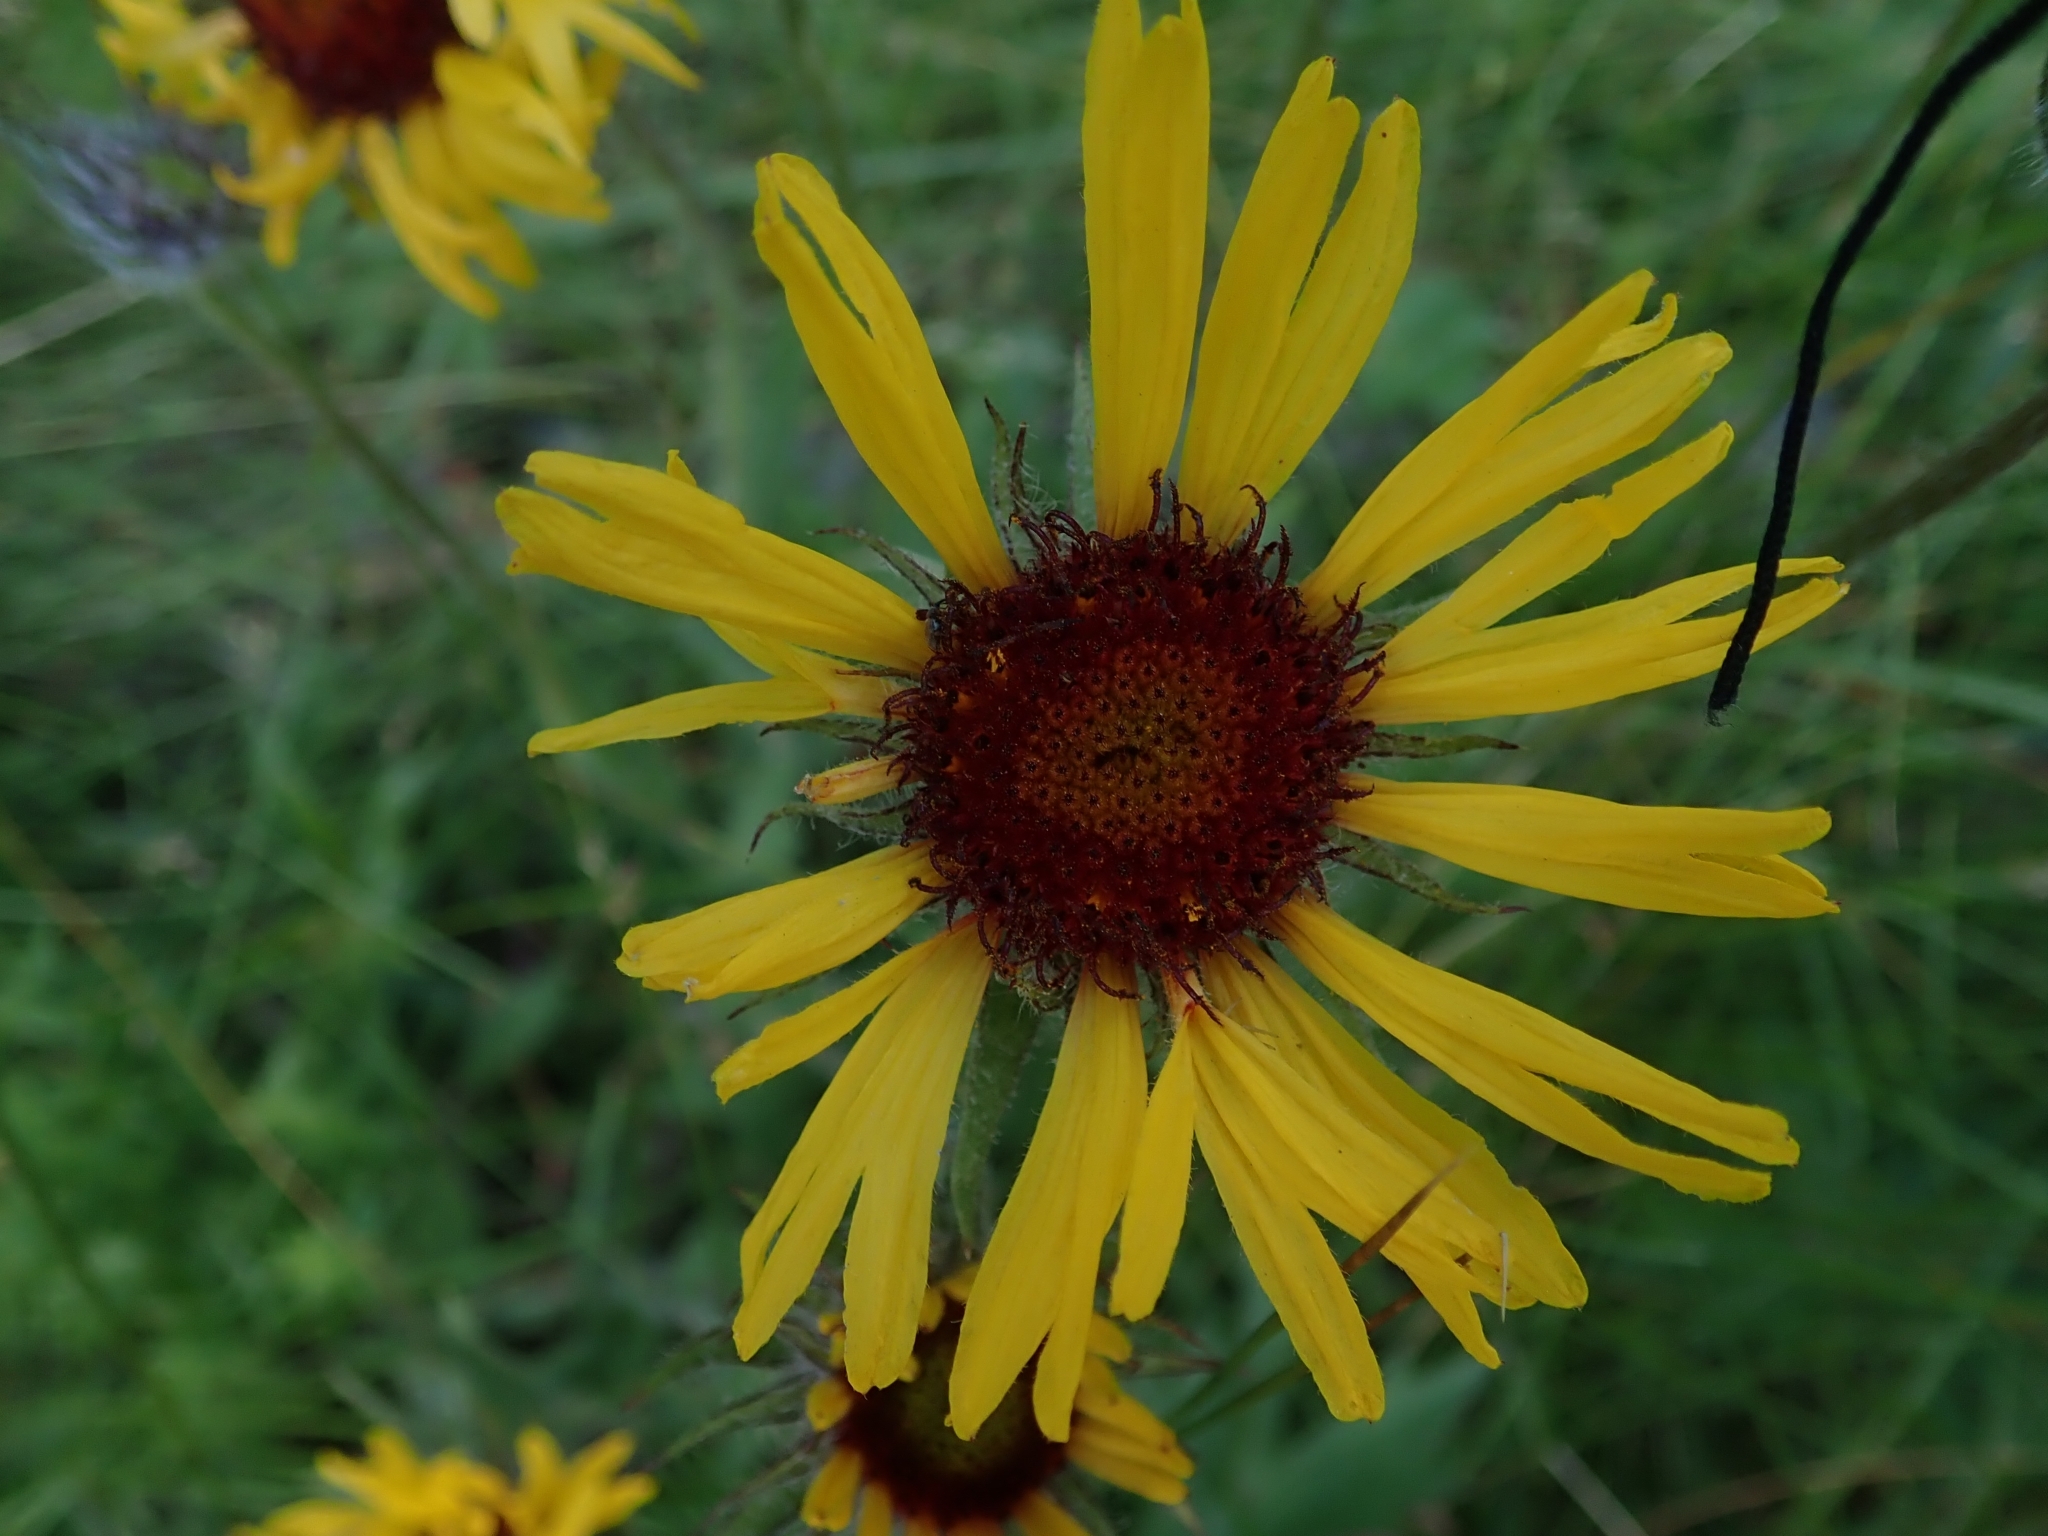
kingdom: Plantae
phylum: Tracheophyta
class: Magnoliopsida
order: Asterales
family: Asteraceae
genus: Gaillardia
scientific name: Gaillardia aristata
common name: Blanket-flower
